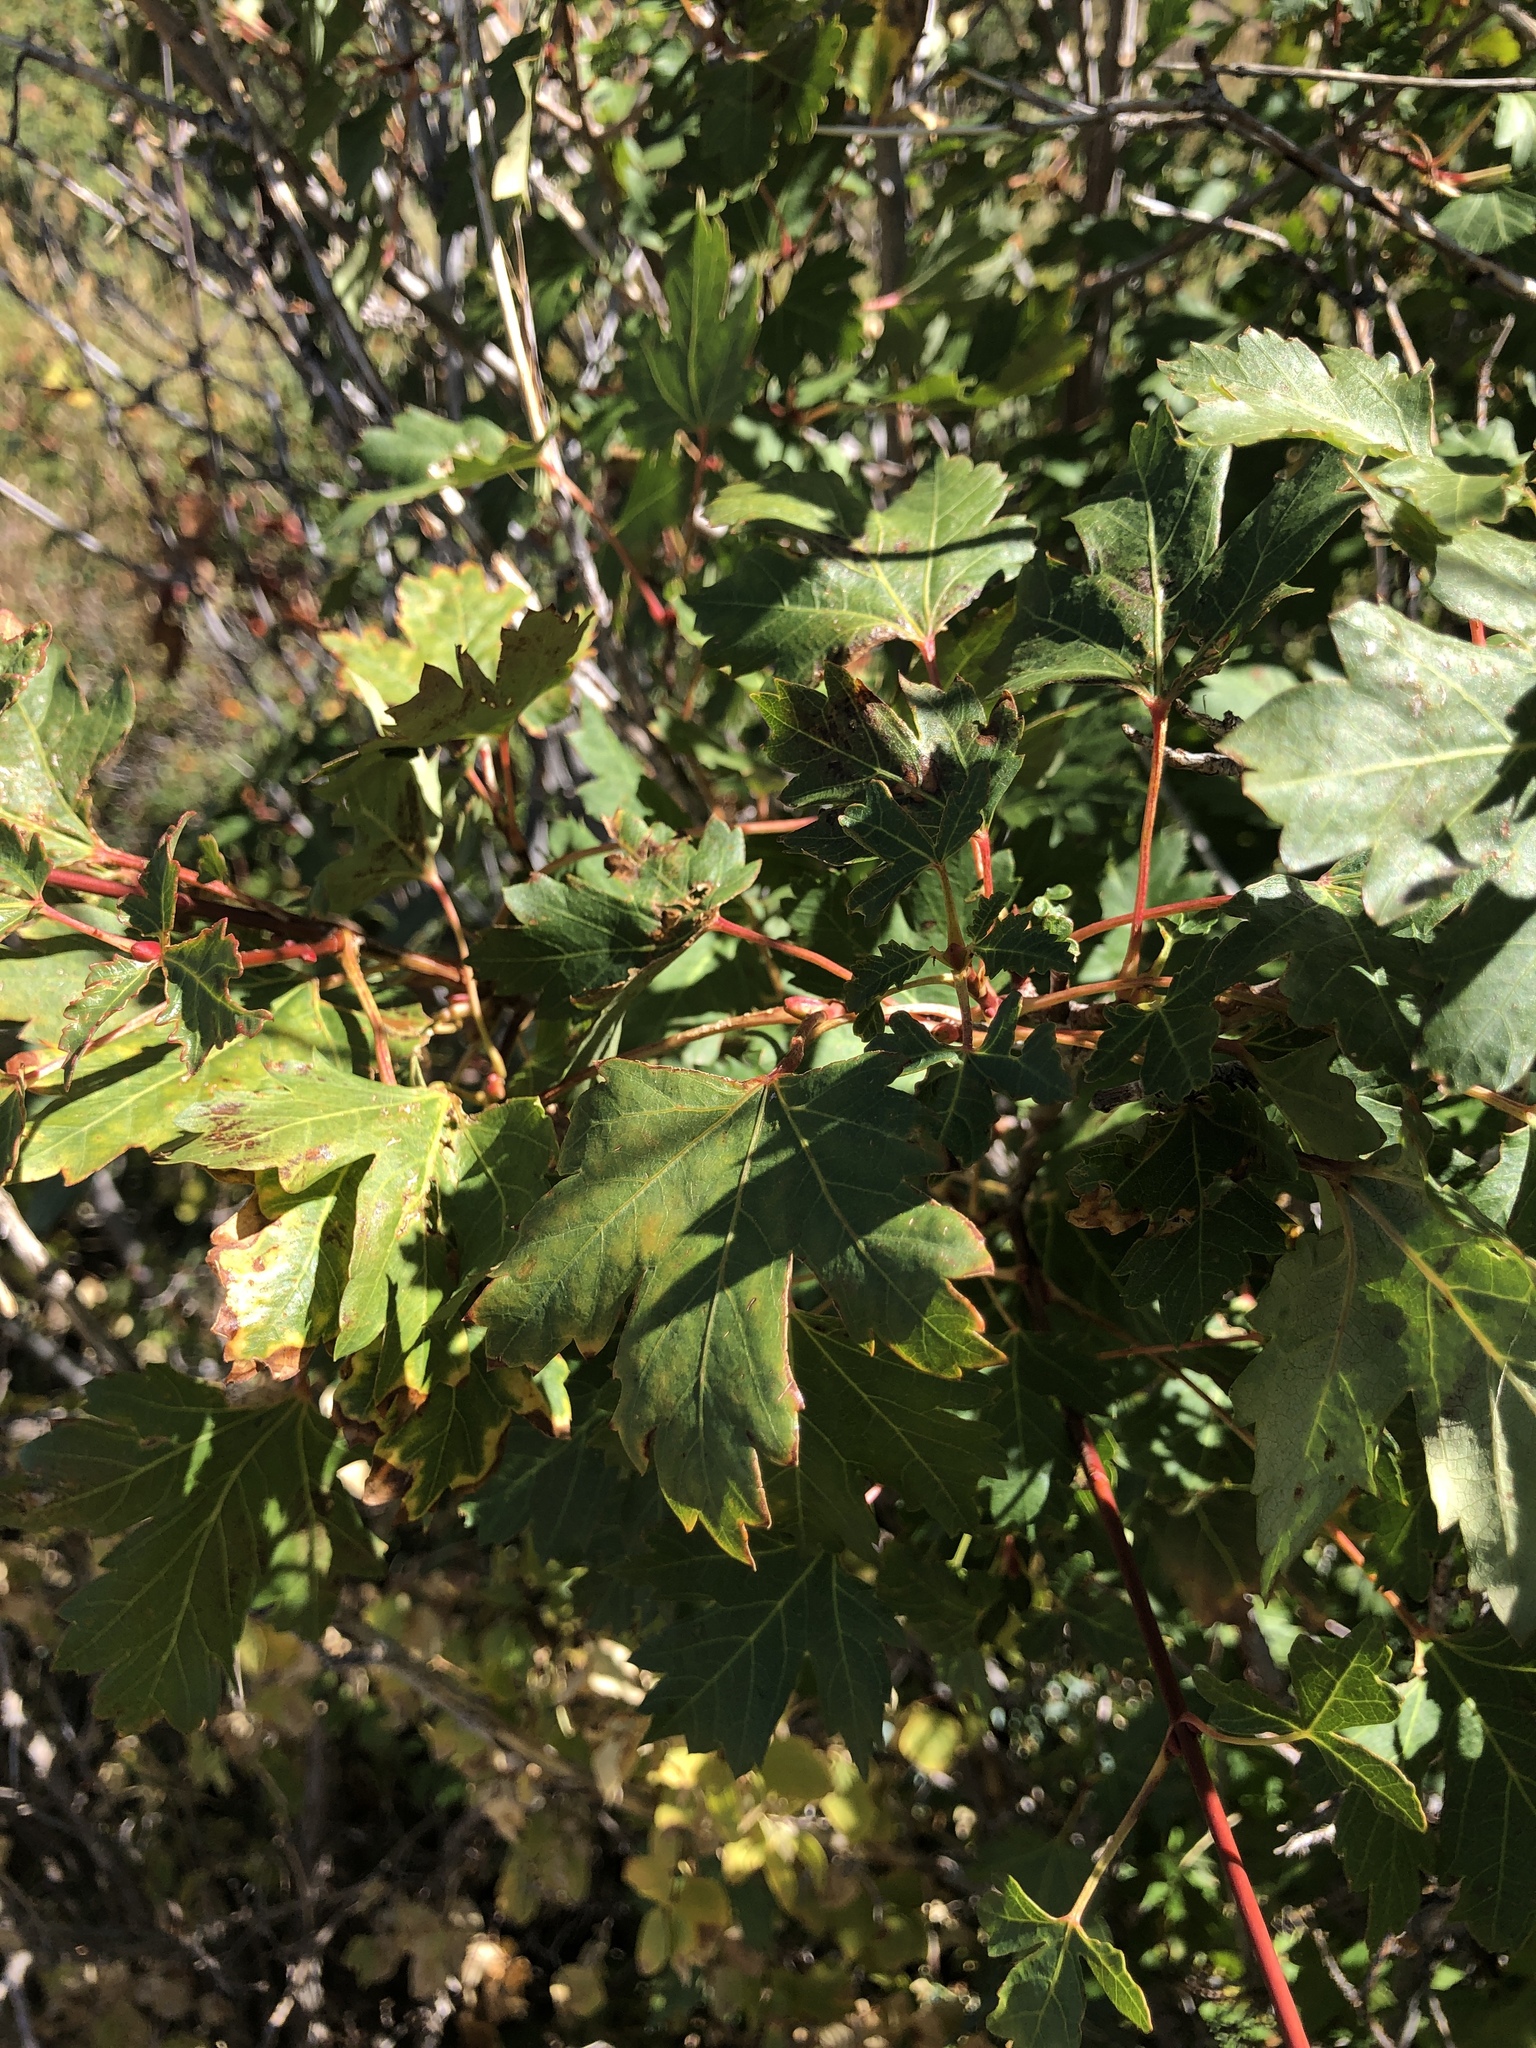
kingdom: Plantae
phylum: Tracheophyta
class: Magnoliopsida
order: Sapindales
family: Sapindaceae
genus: Acer
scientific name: Acer glabrum
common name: Rocky mountain maple
